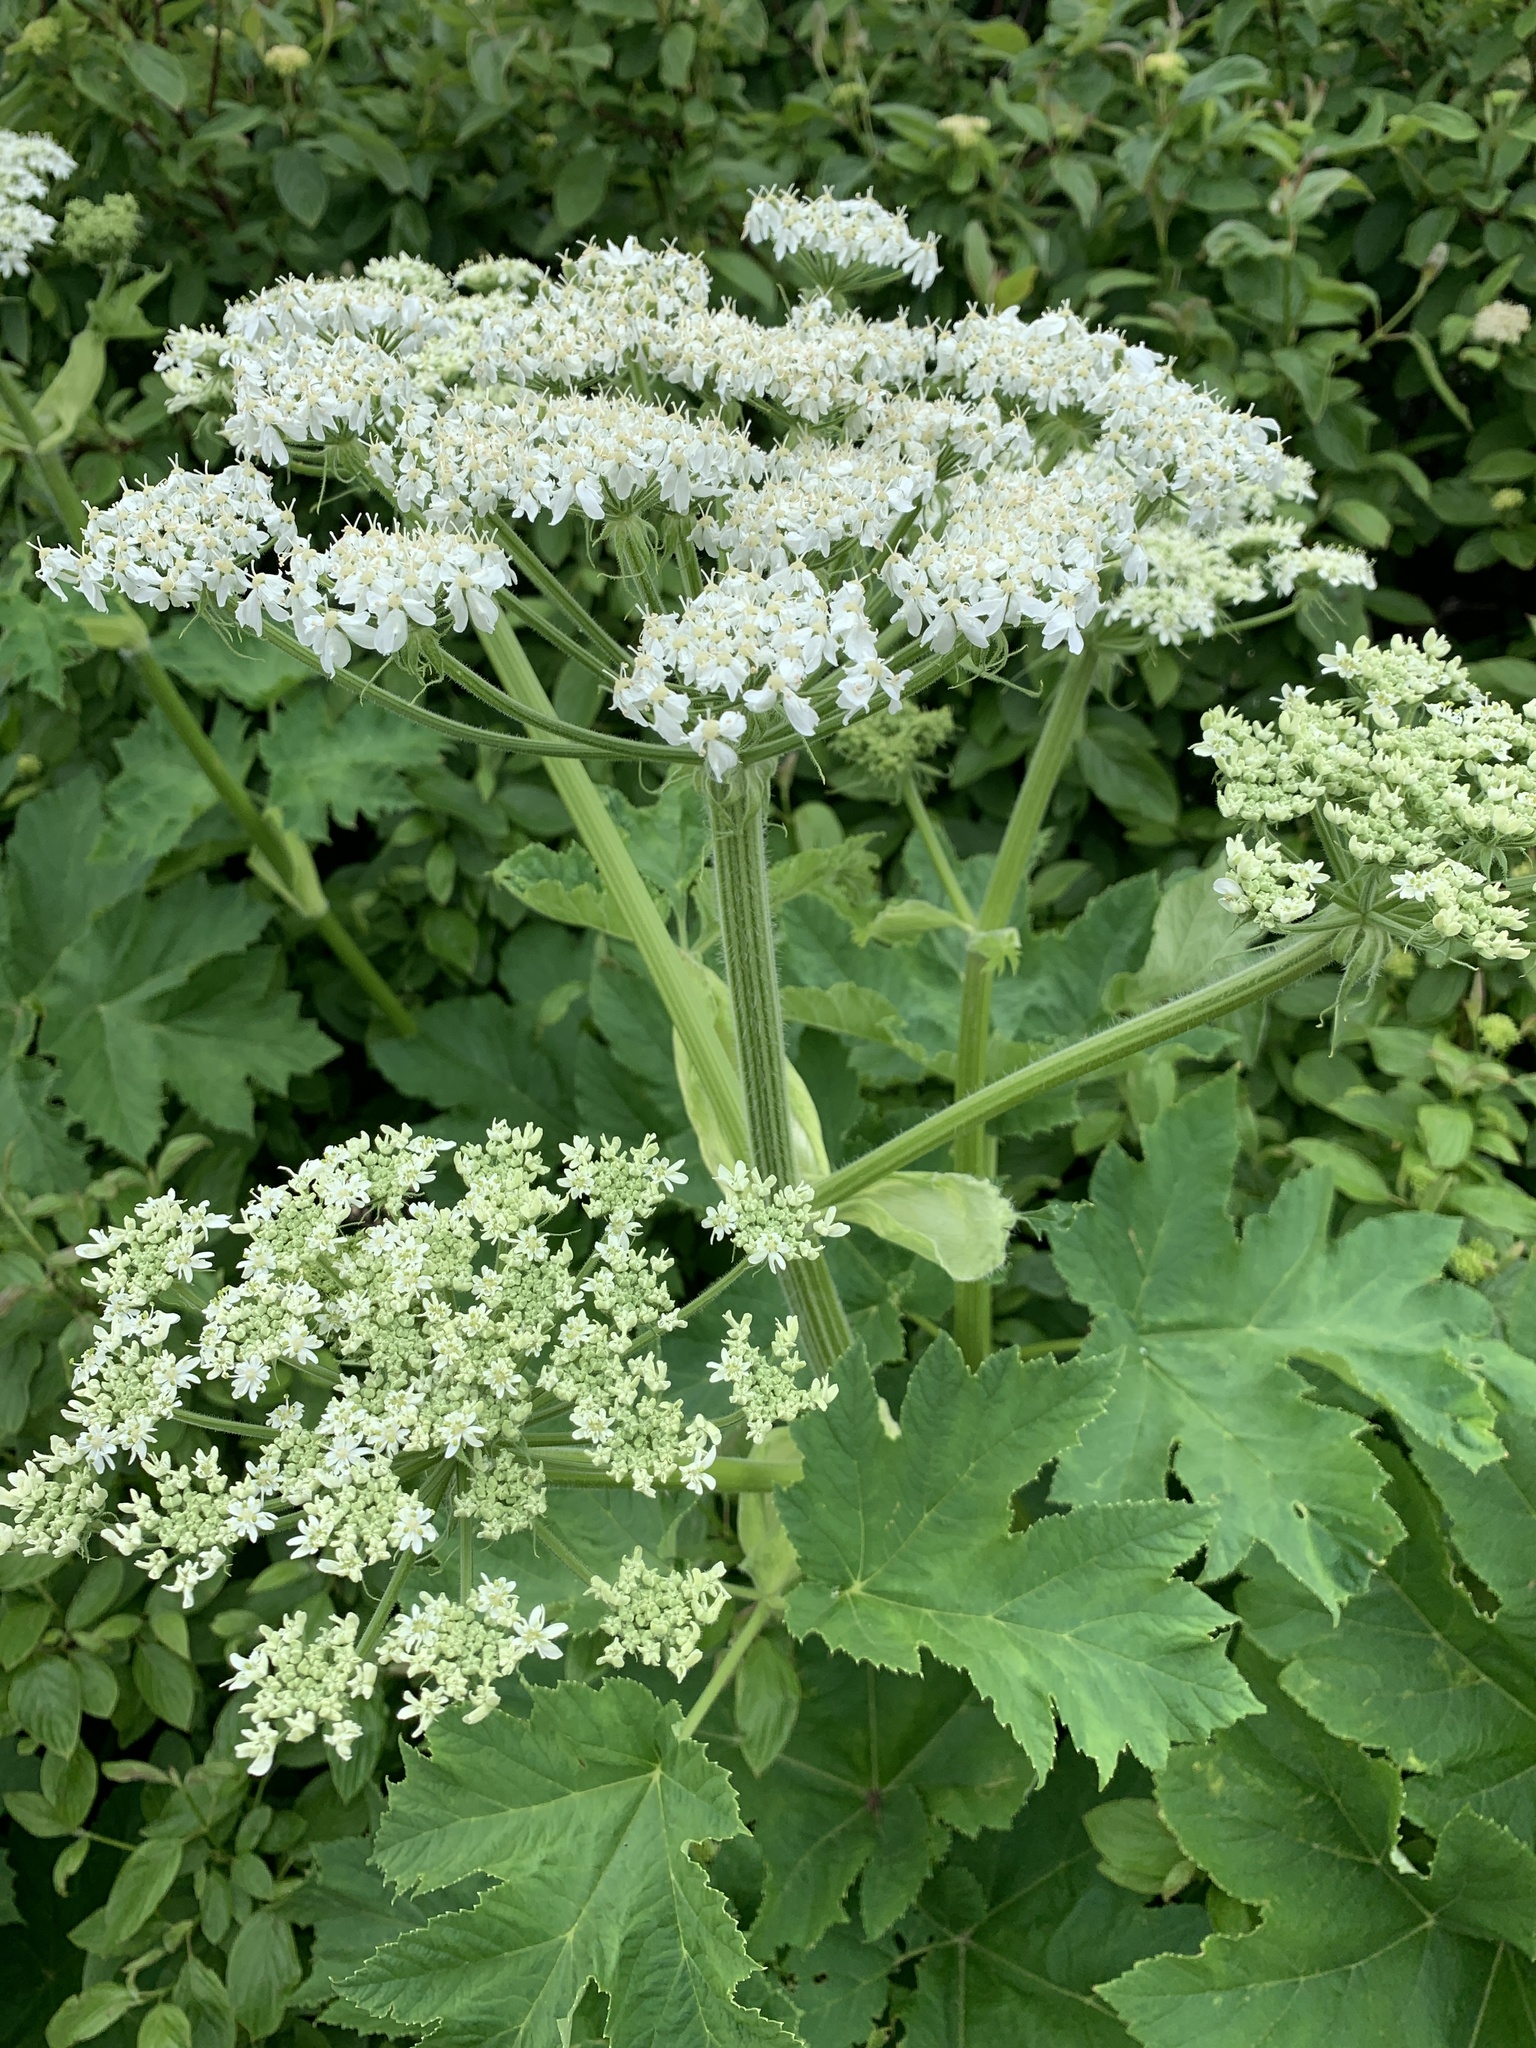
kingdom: Plantae
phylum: Tracheophyta
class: Magnoliopsida
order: Apiales
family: Apiaceae
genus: Heracleum
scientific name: Heracleum maximum
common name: American cow parsnip
